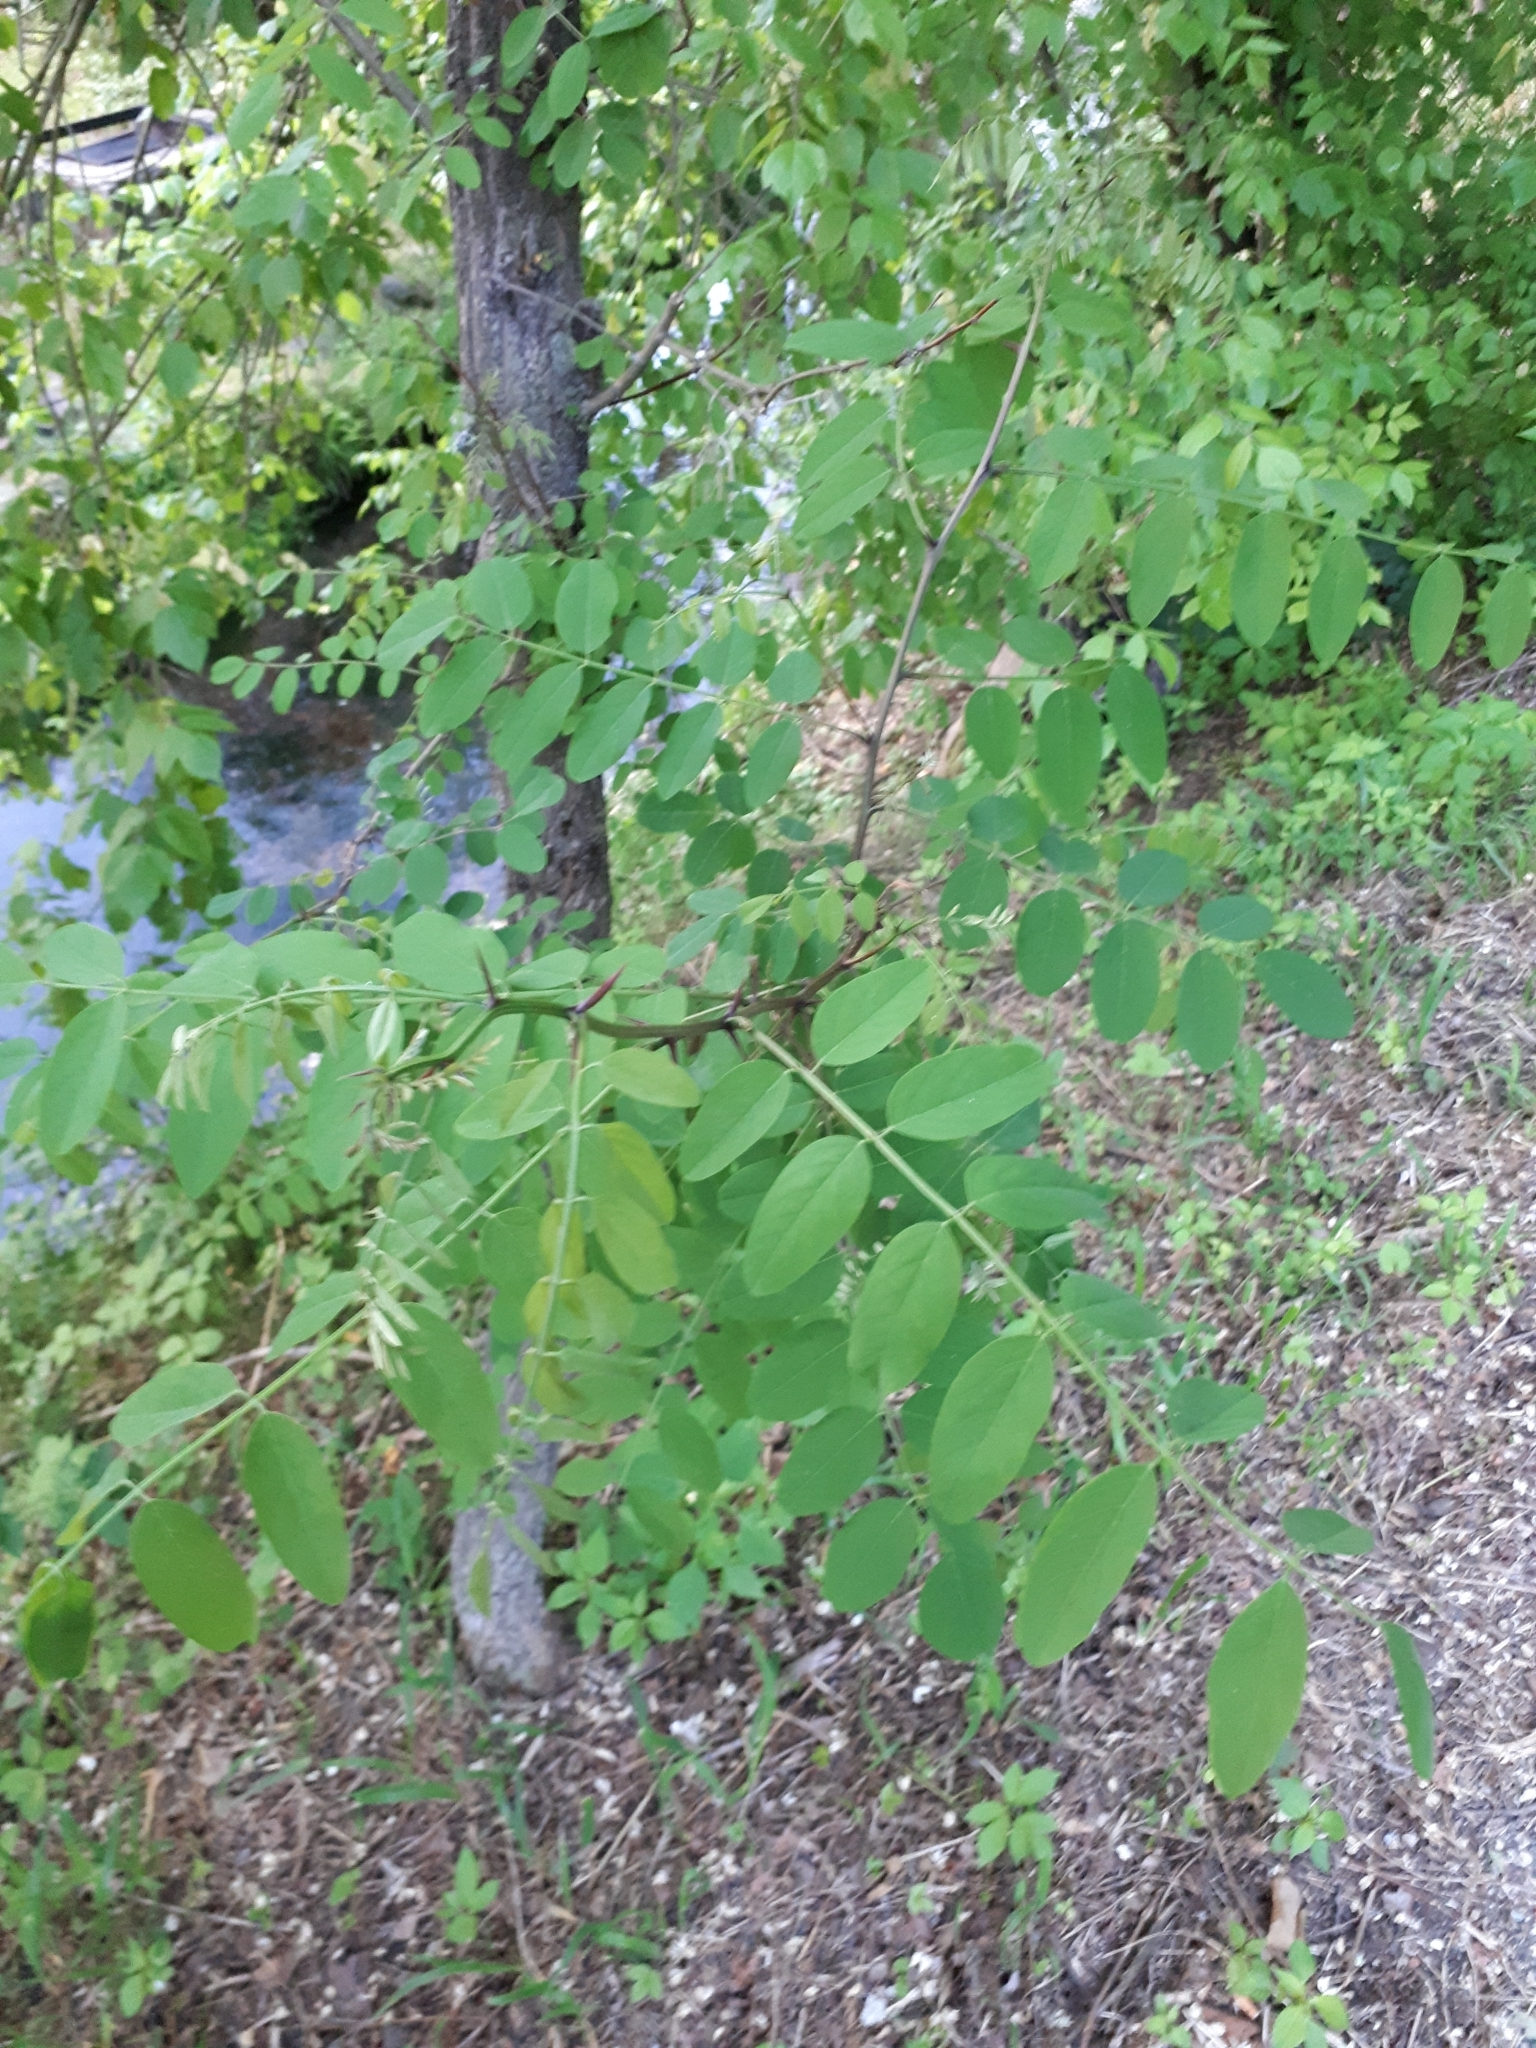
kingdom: Plantae
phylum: Tracheophyta
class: Magnoliopsida
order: Fabales
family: Fabaceae
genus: Robinia
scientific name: Robinia pseudoacacia
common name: Black locust
